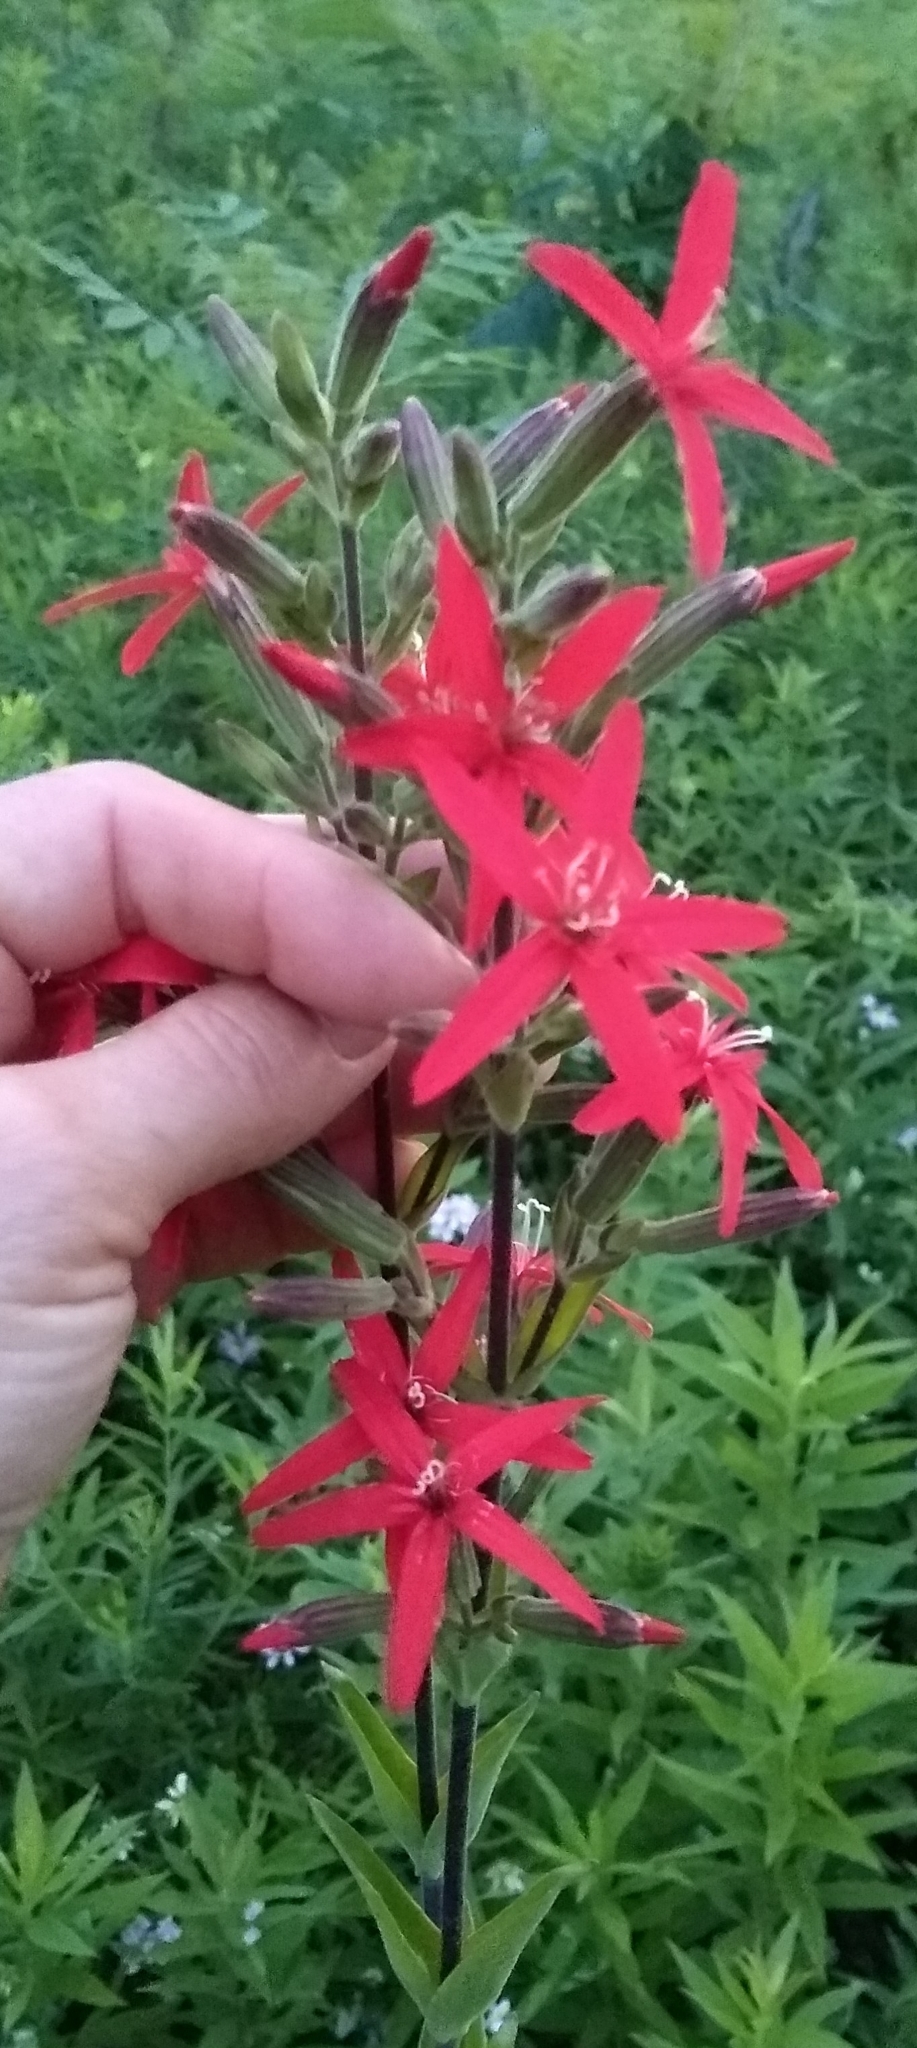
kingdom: Plantae
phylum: Tracheophyta
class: Magnoliopsida
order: Caryophyllales
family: Caryophyllaceae
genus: Silene
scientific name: Silene regia
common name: Royal catchfly
